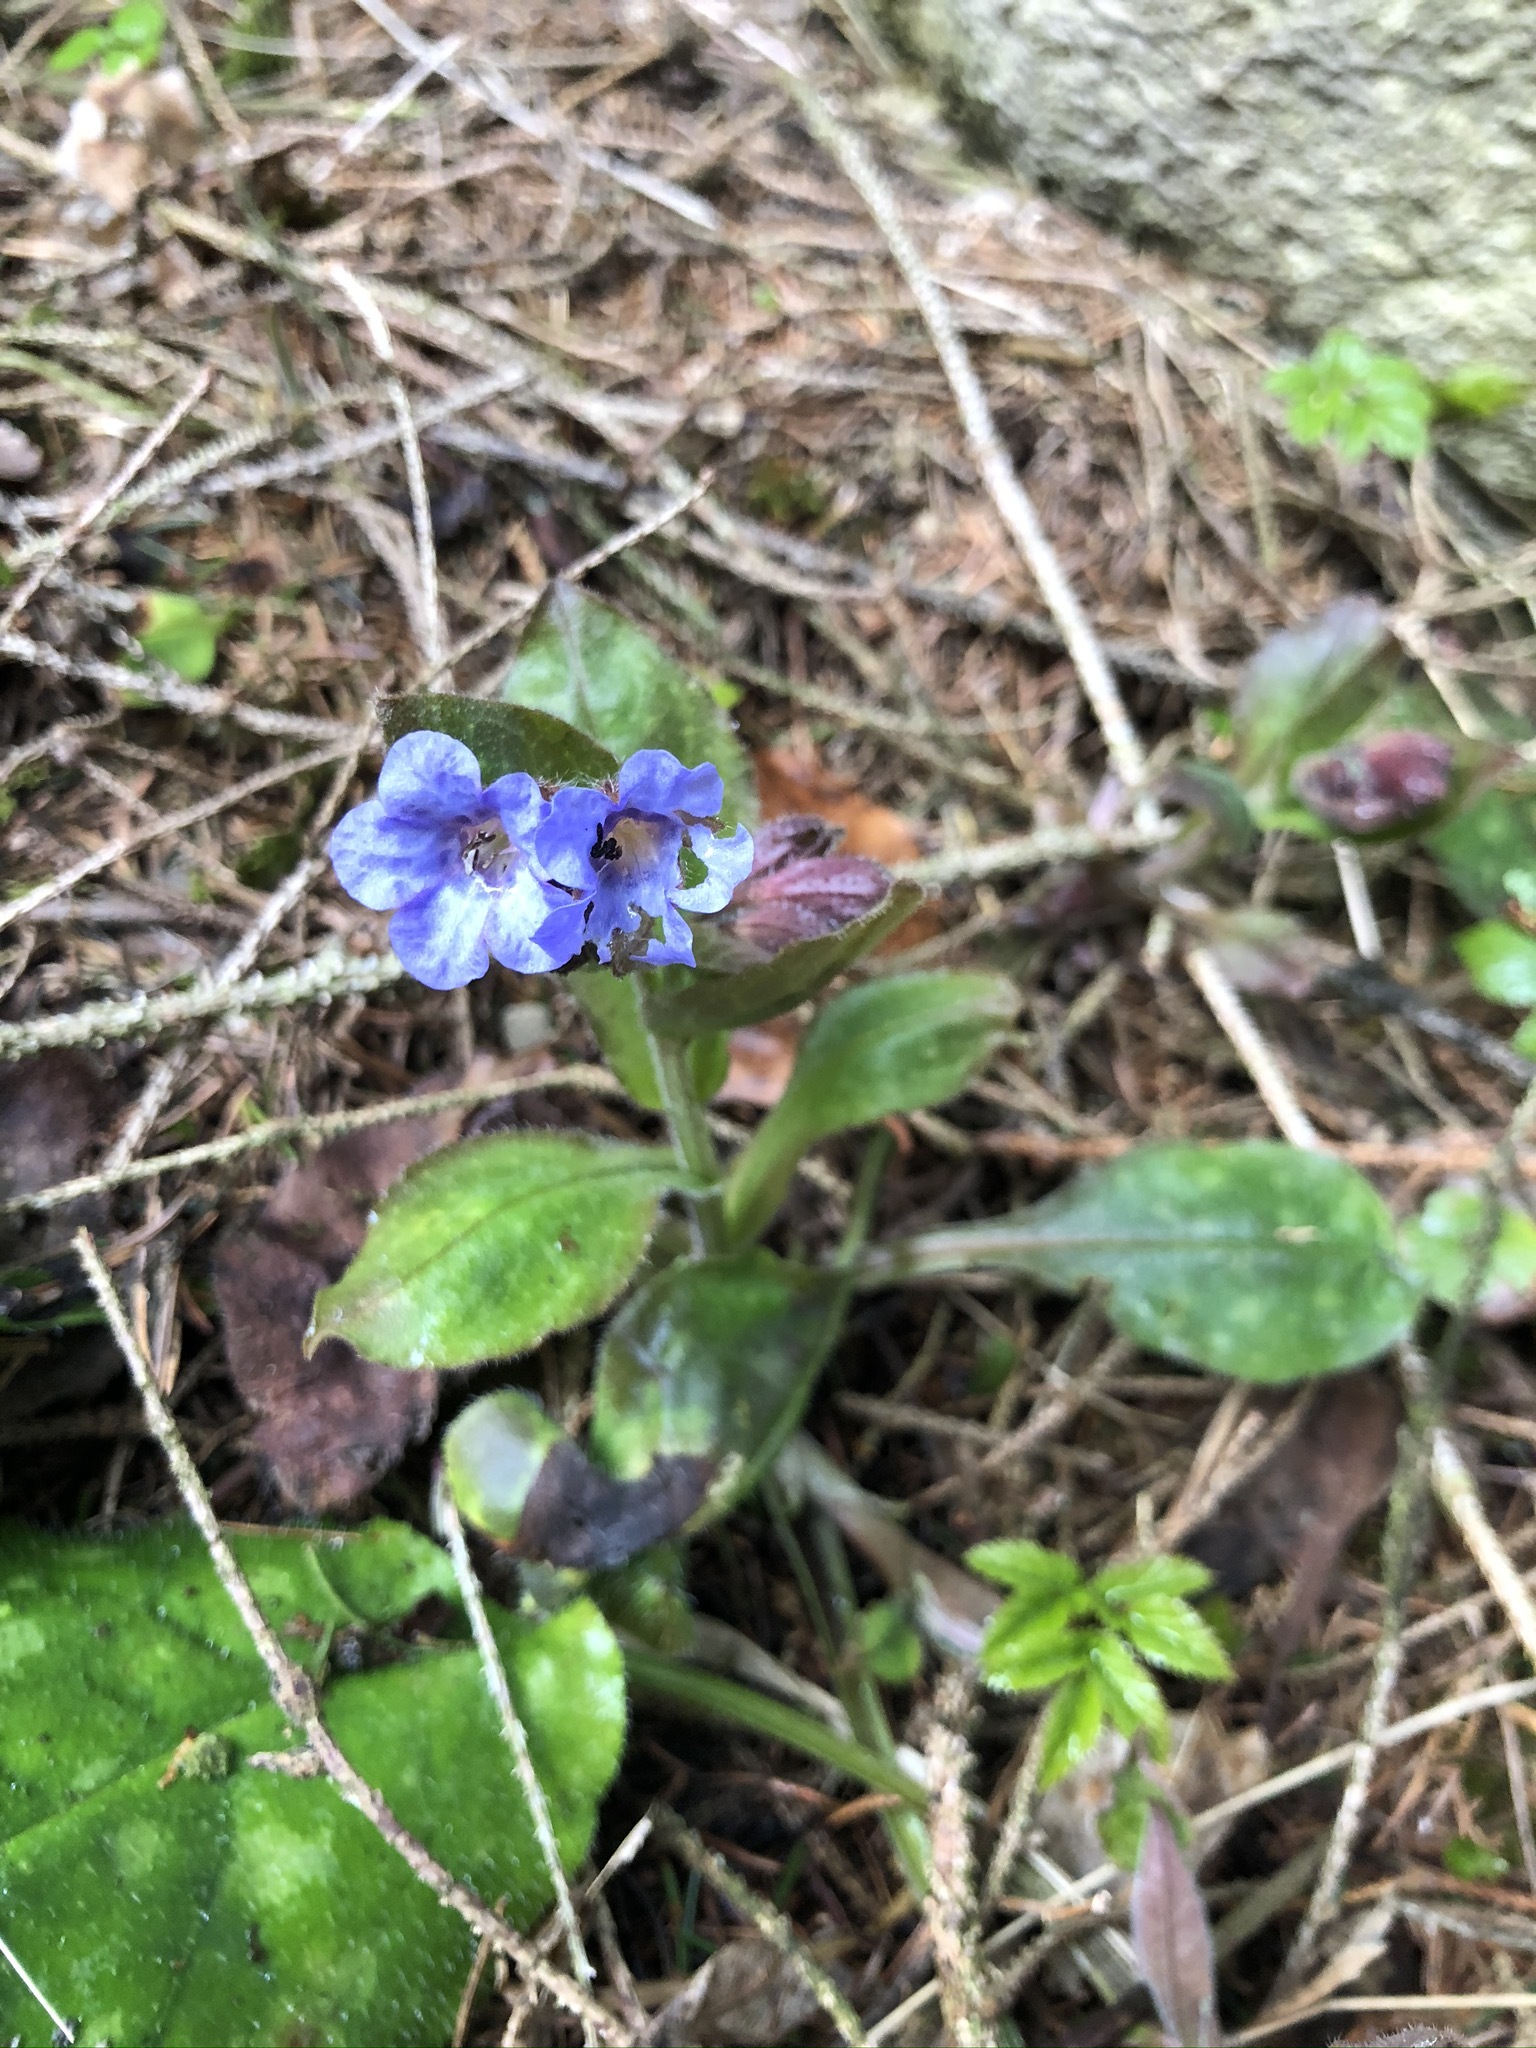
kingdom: Plantae
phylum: Tracheophyta
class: Magnoliopsida
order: Boraginales
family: Boraginaceae
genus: Pulmonaria
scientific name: Pulmonaria officinalis
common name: Lungwort
